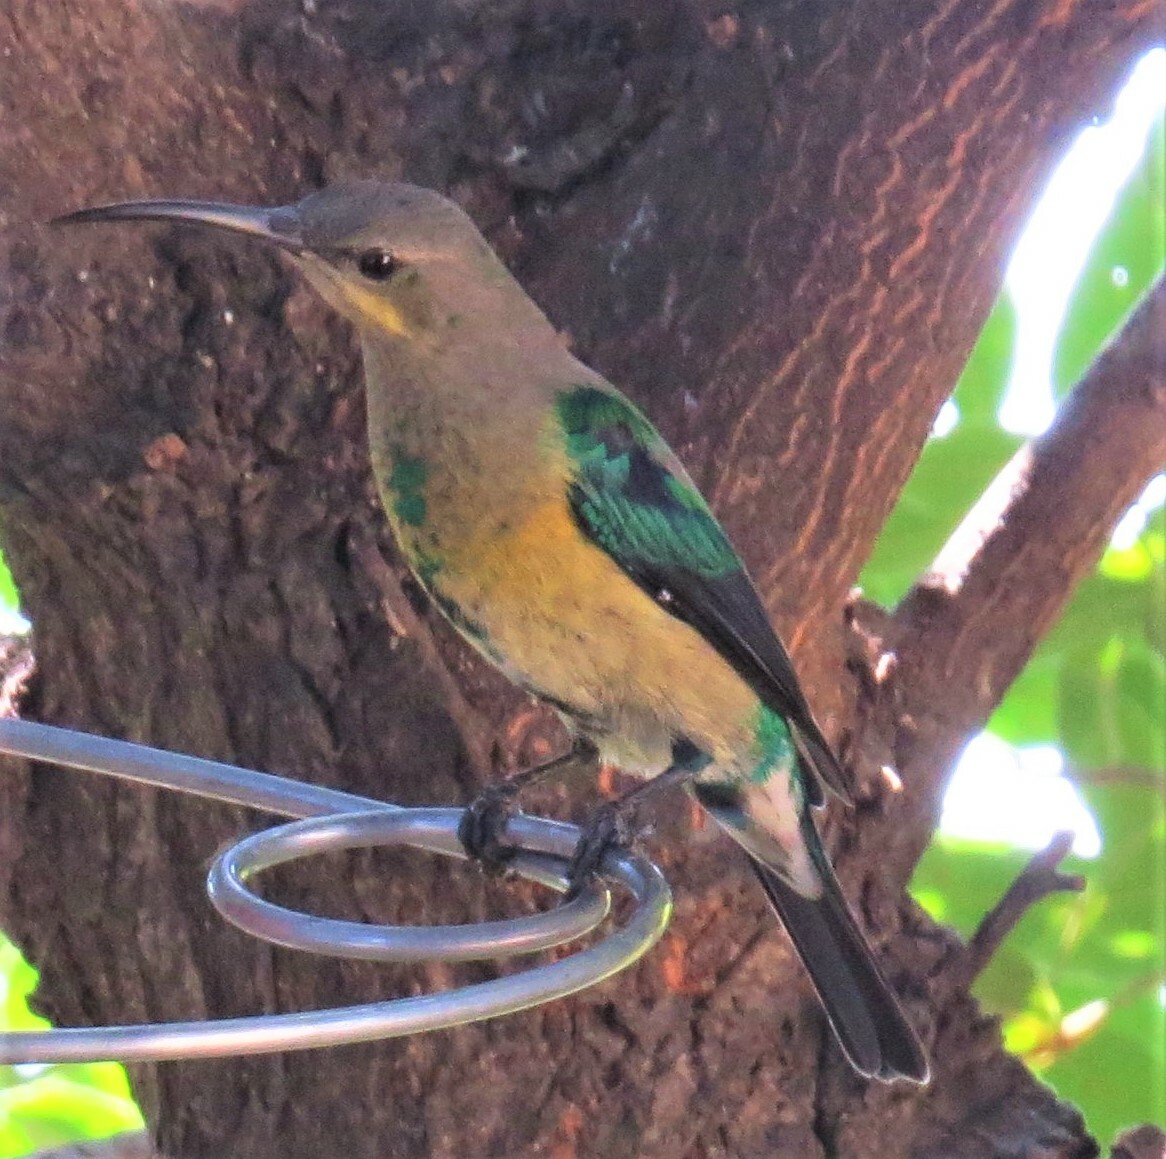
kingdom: Animalia
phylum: Chordata
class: Aves
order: Passeriformes
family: Nectariniidae
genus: Nectarinia
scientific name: Nectarinia famosa
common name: Malachite sunbird
